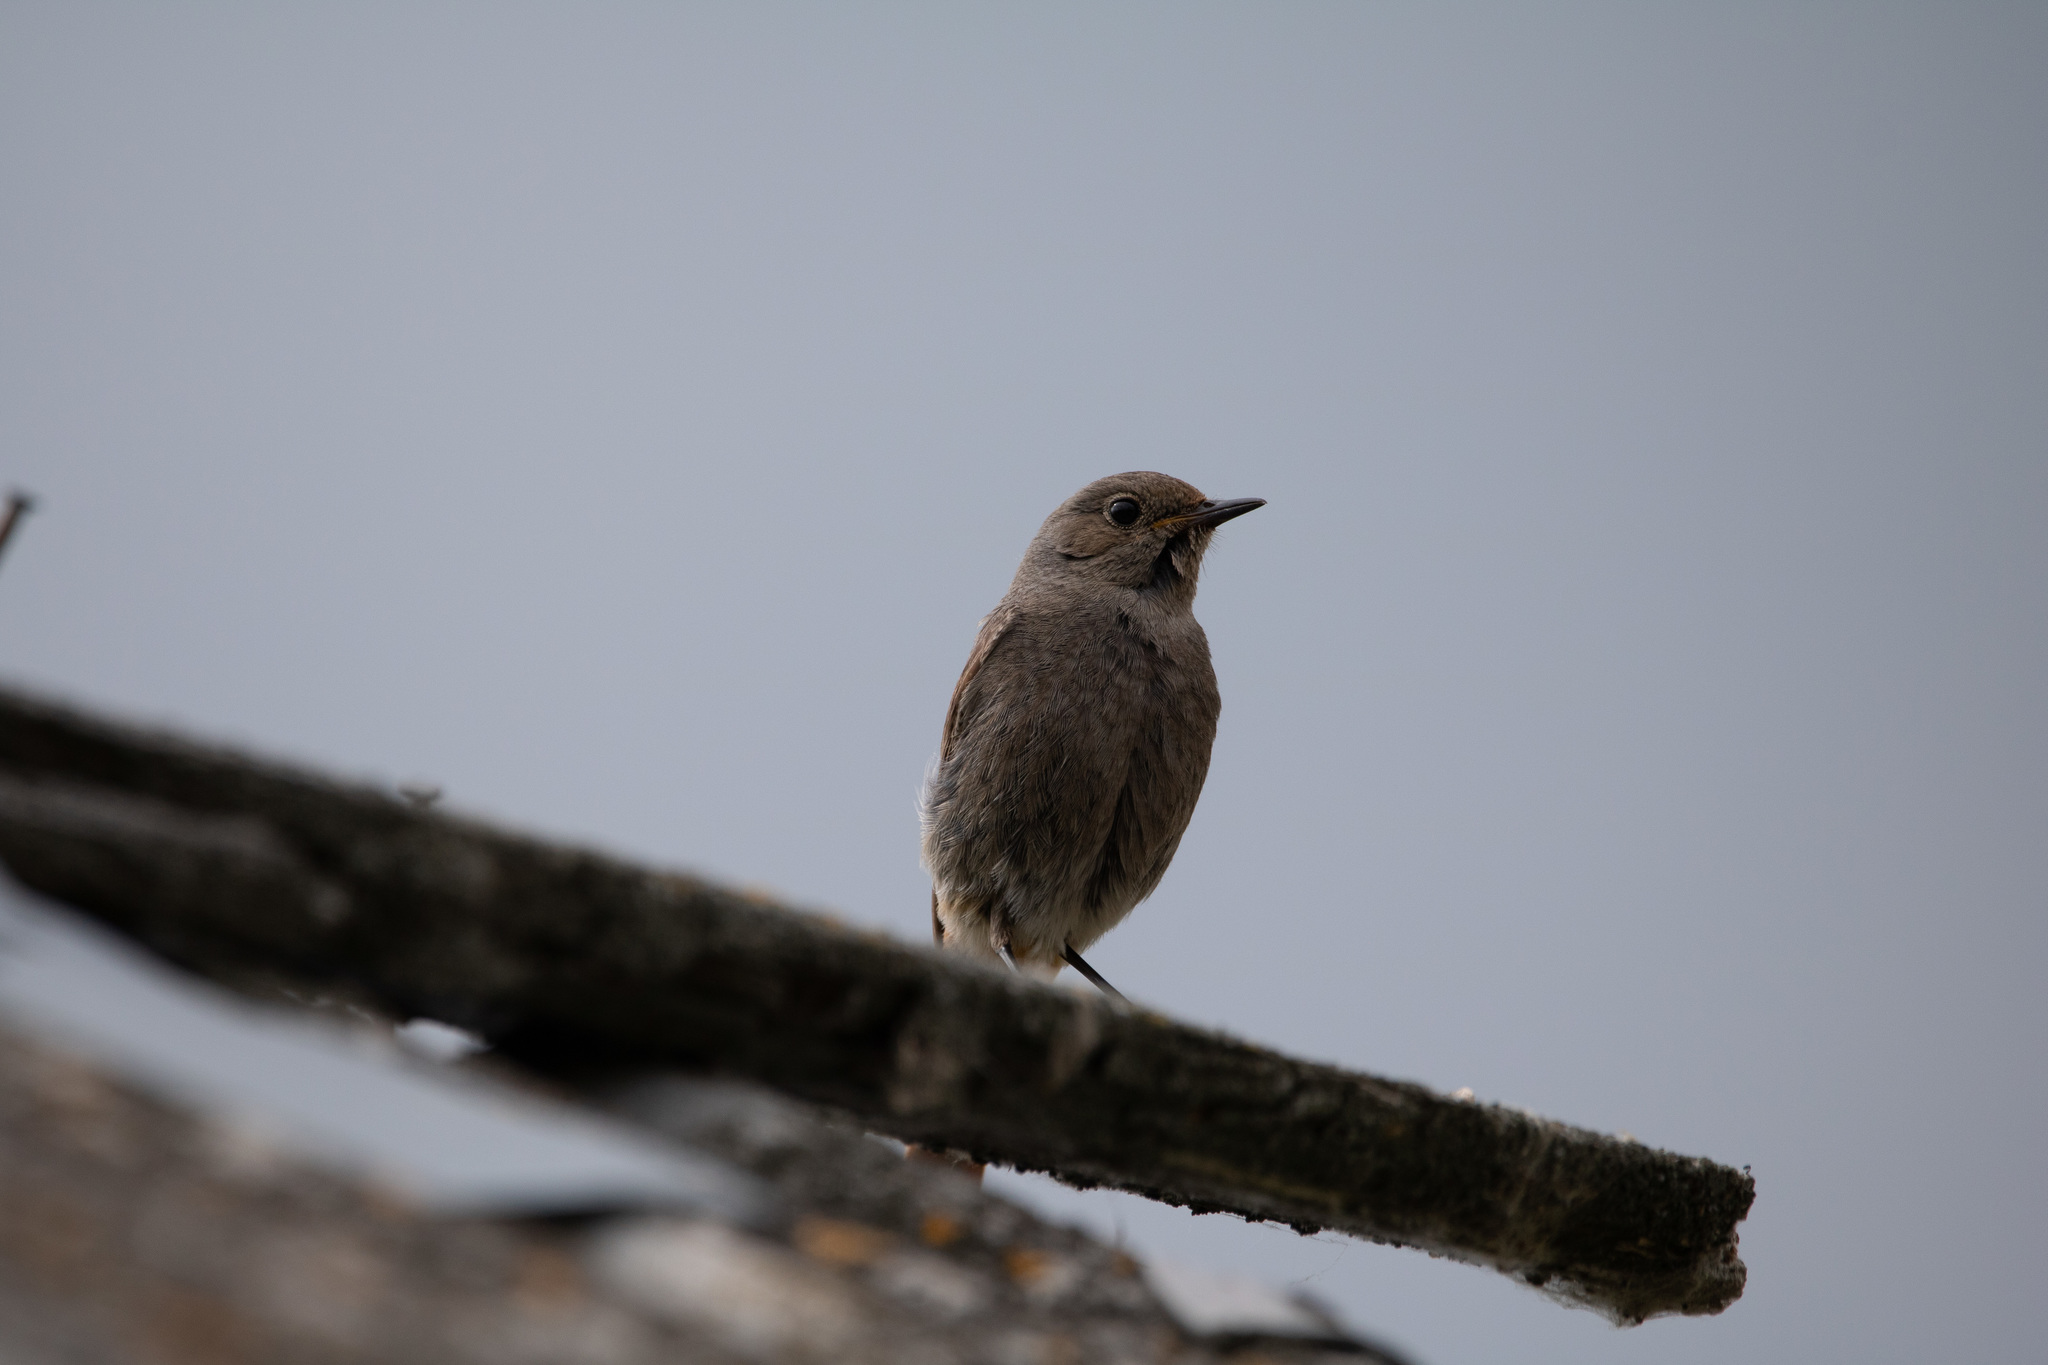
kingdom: Animalia
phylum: Chordata
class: Aves
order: Passeriformes
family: Muscicapidae
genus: Phoenicurus
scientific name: Phoenicurus ochruros
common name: Black redstart
